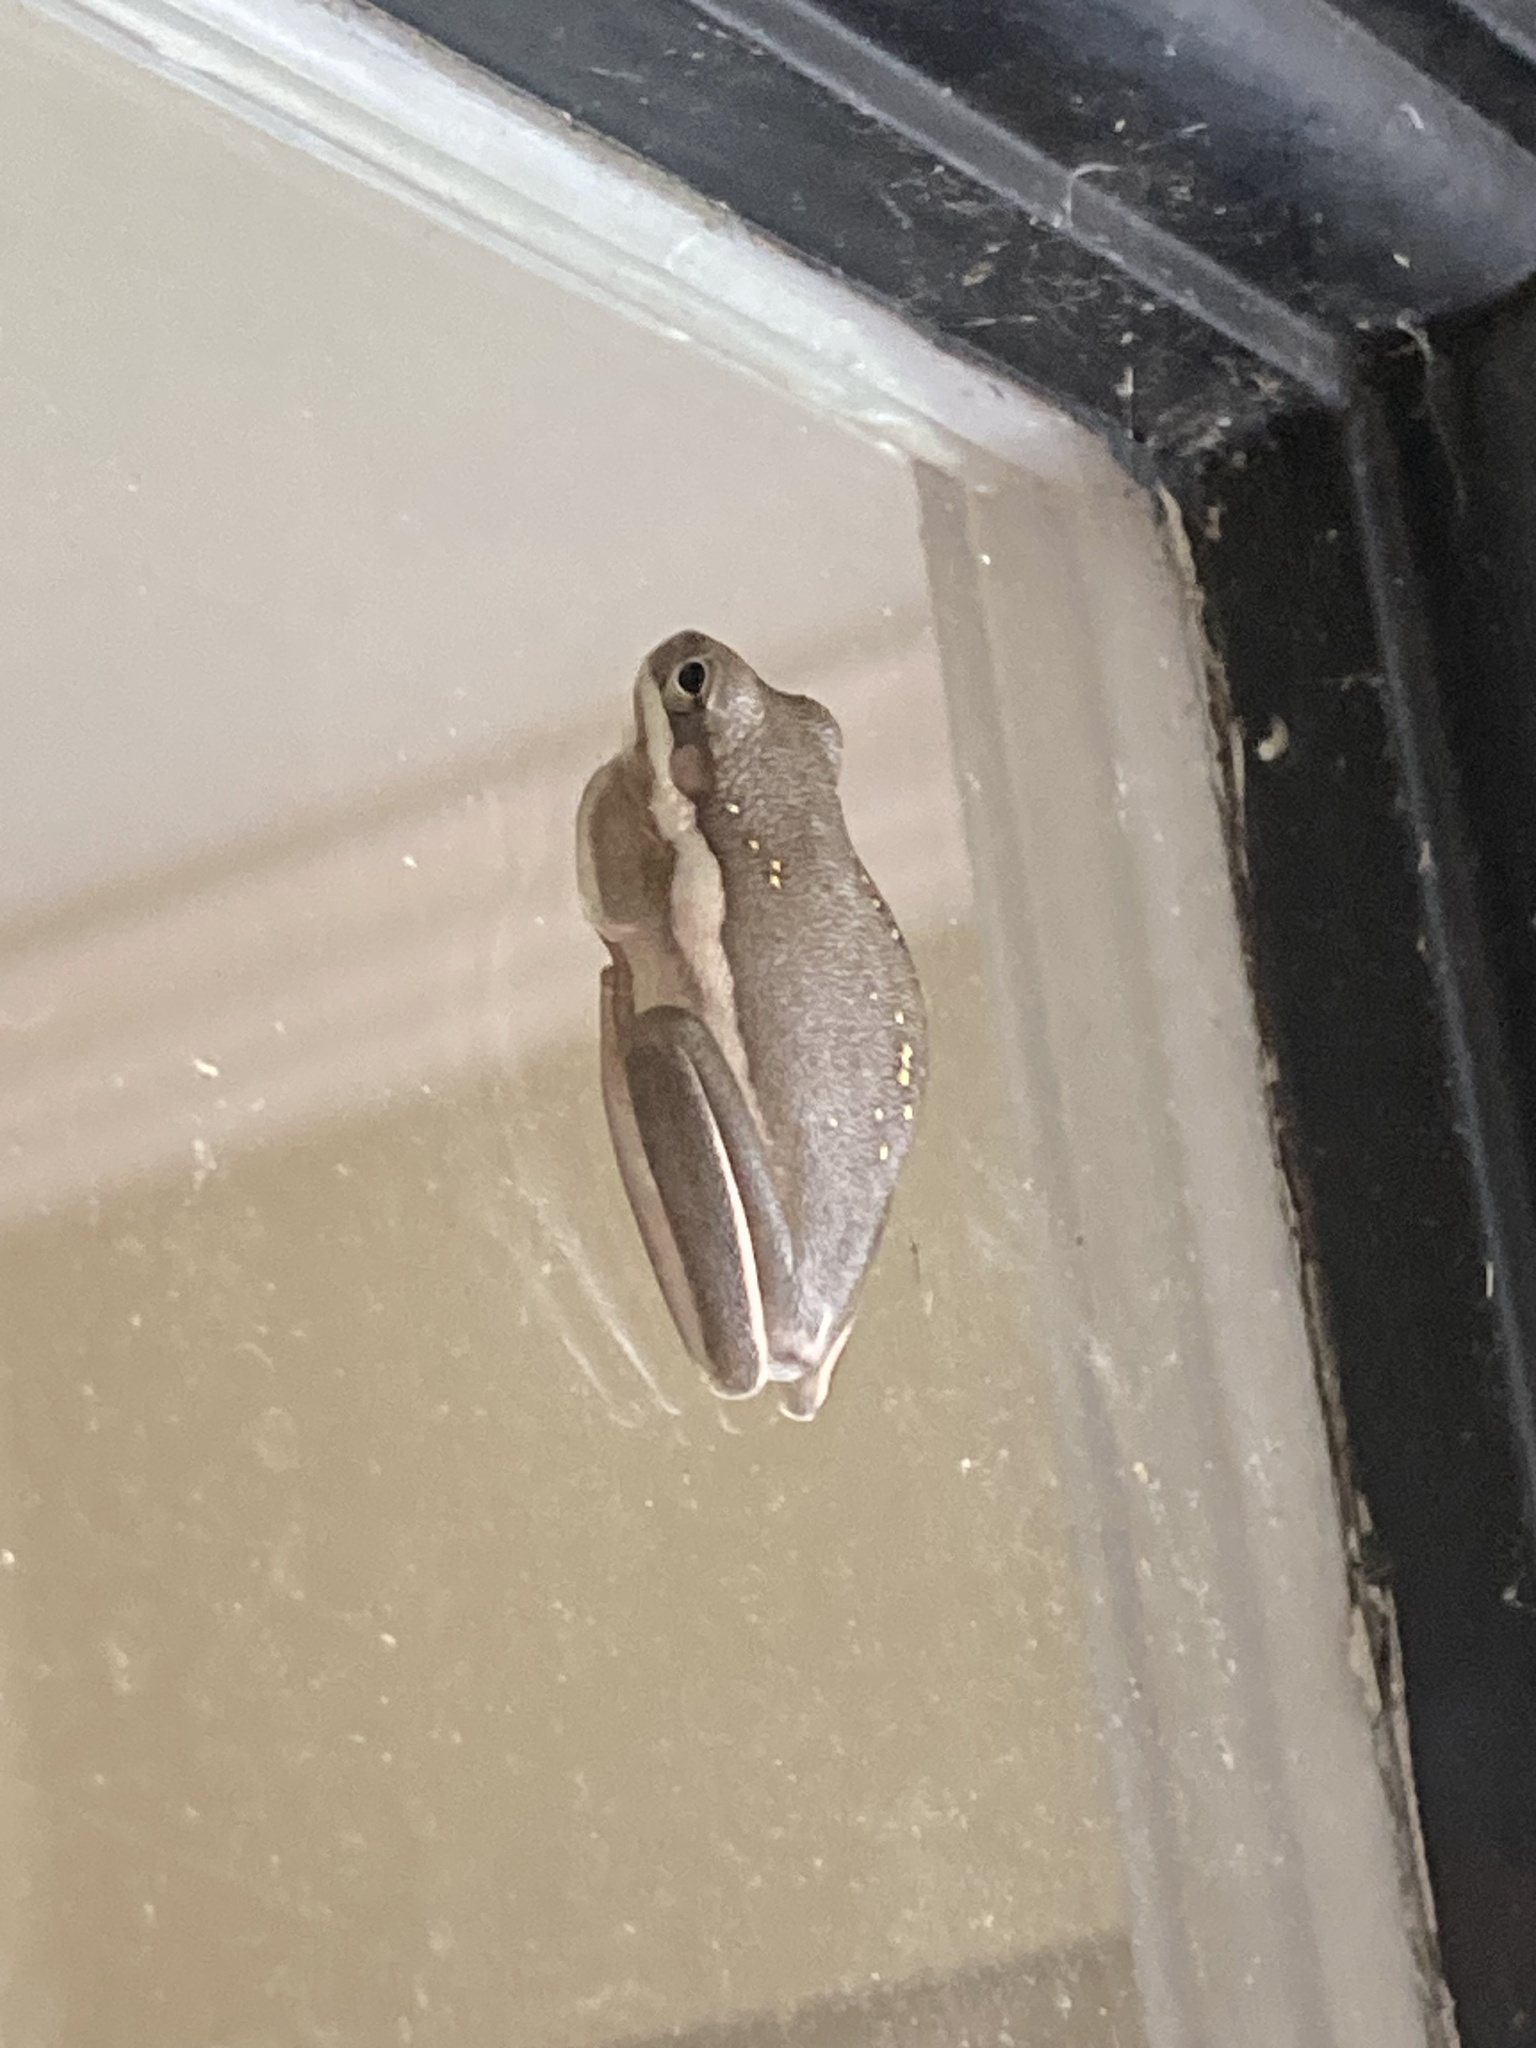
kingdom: Animalia
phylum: Chordata
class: Amphibia
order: Anura
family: Hylidae
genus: Dryophytes
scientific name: Dryophytes cinereus
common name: Green treefrog
